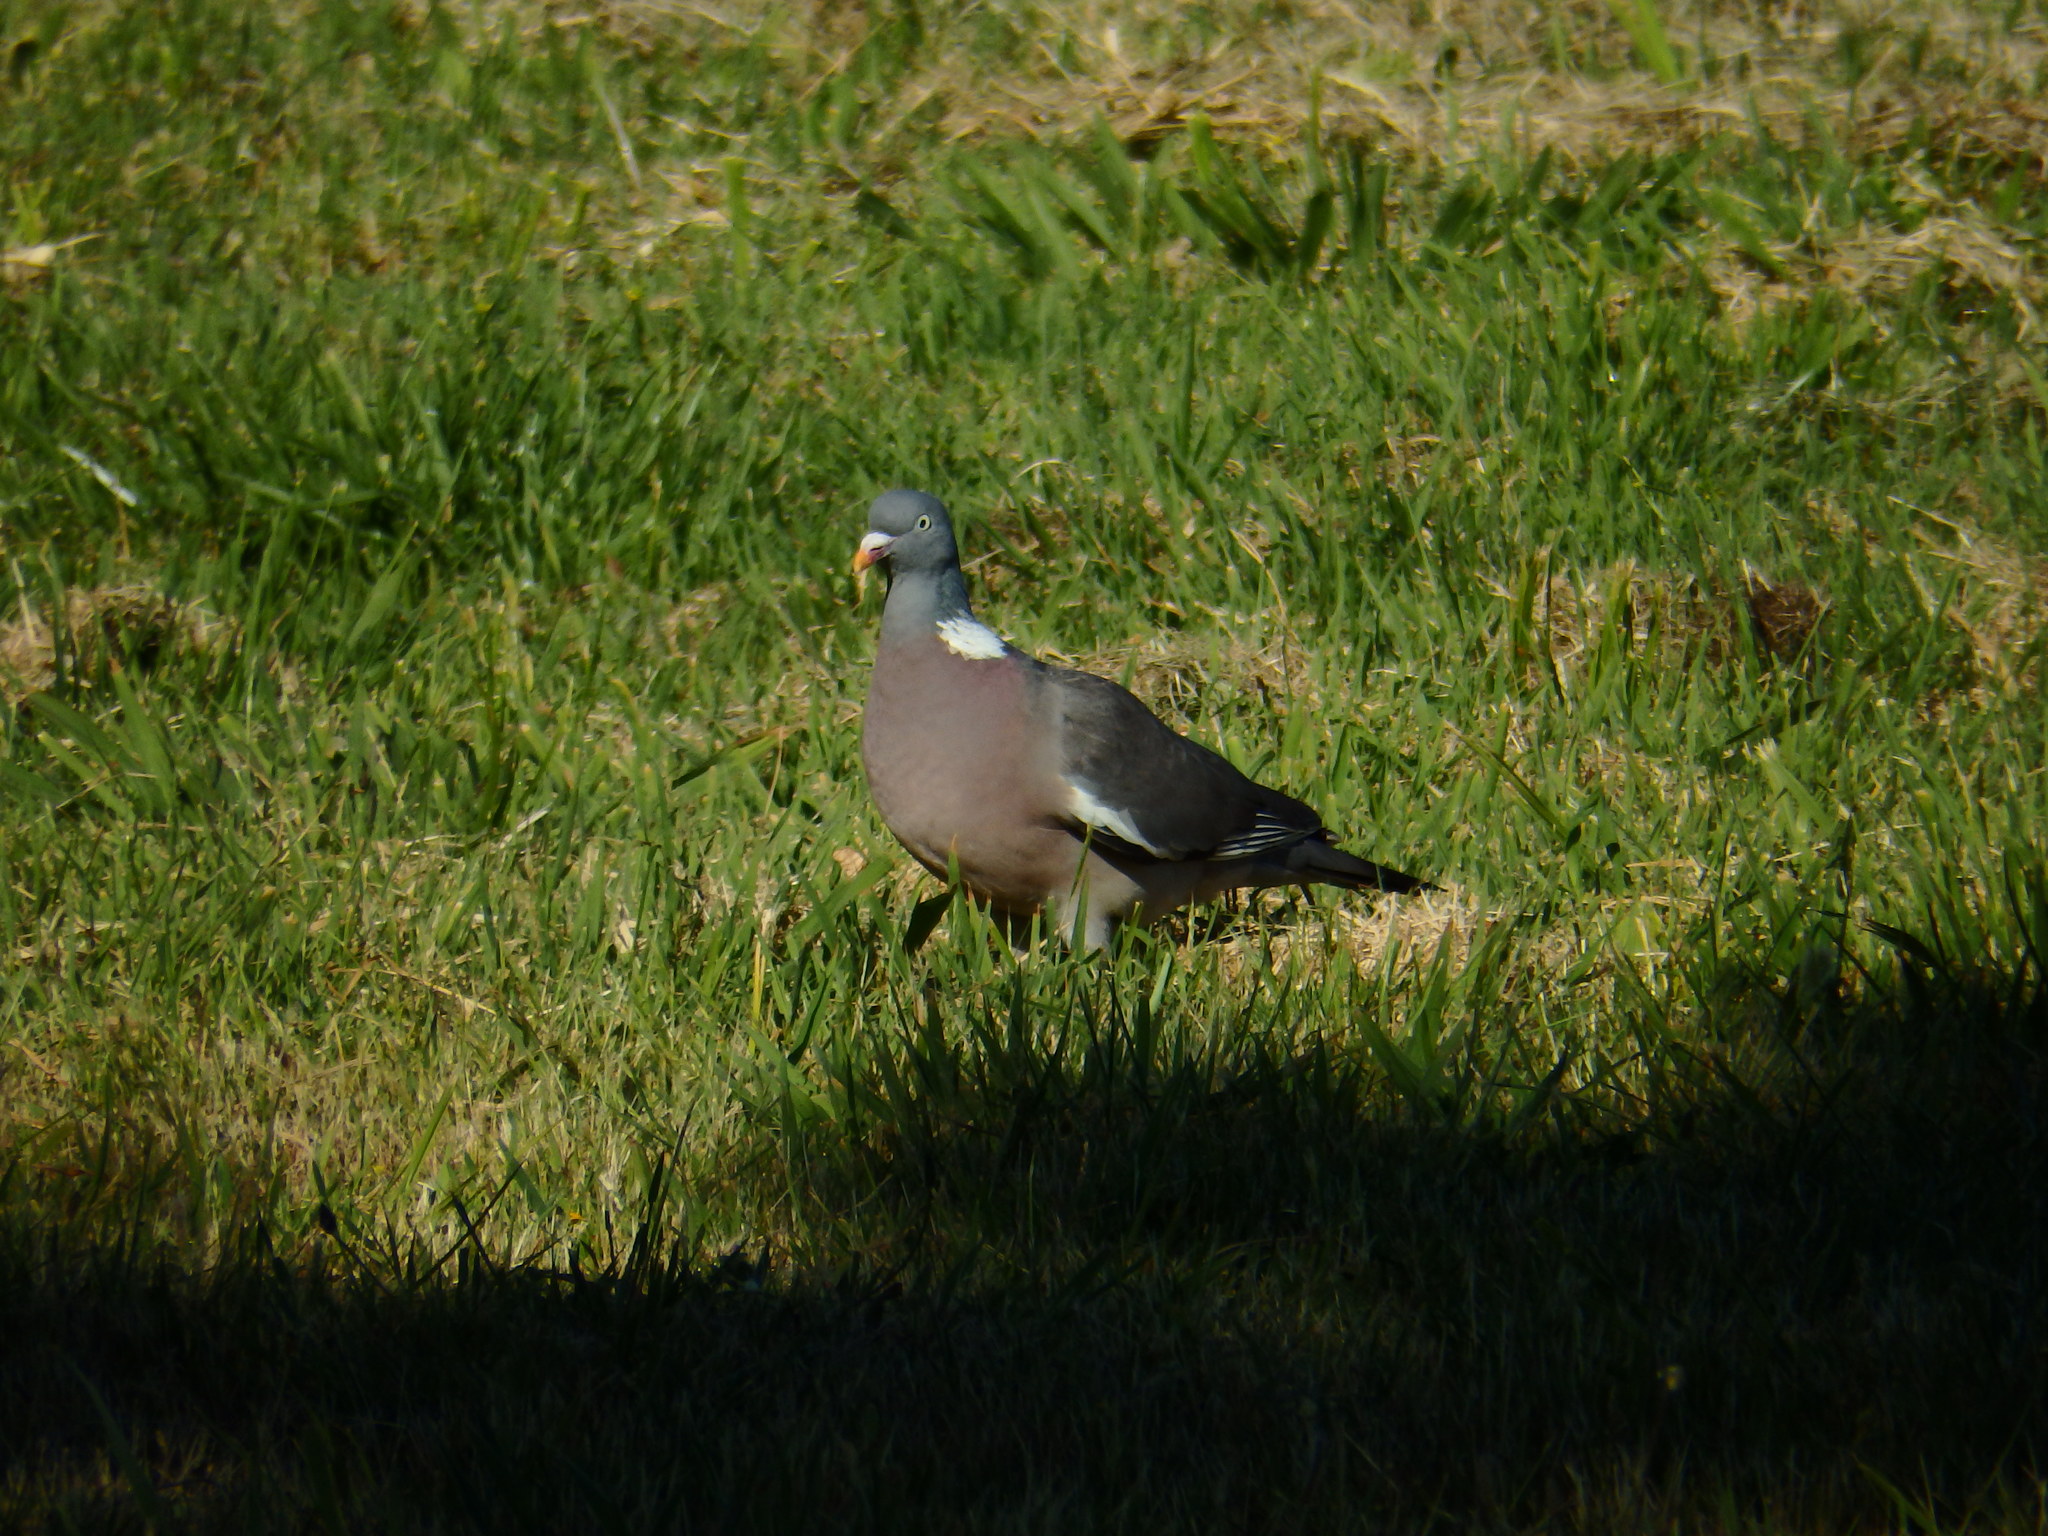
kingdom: Animalia
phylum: Chordata
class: Aves
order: Columbiformes
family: Columbidae
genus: Columba
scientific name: Columba palumbus
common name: Common wood pigeon
